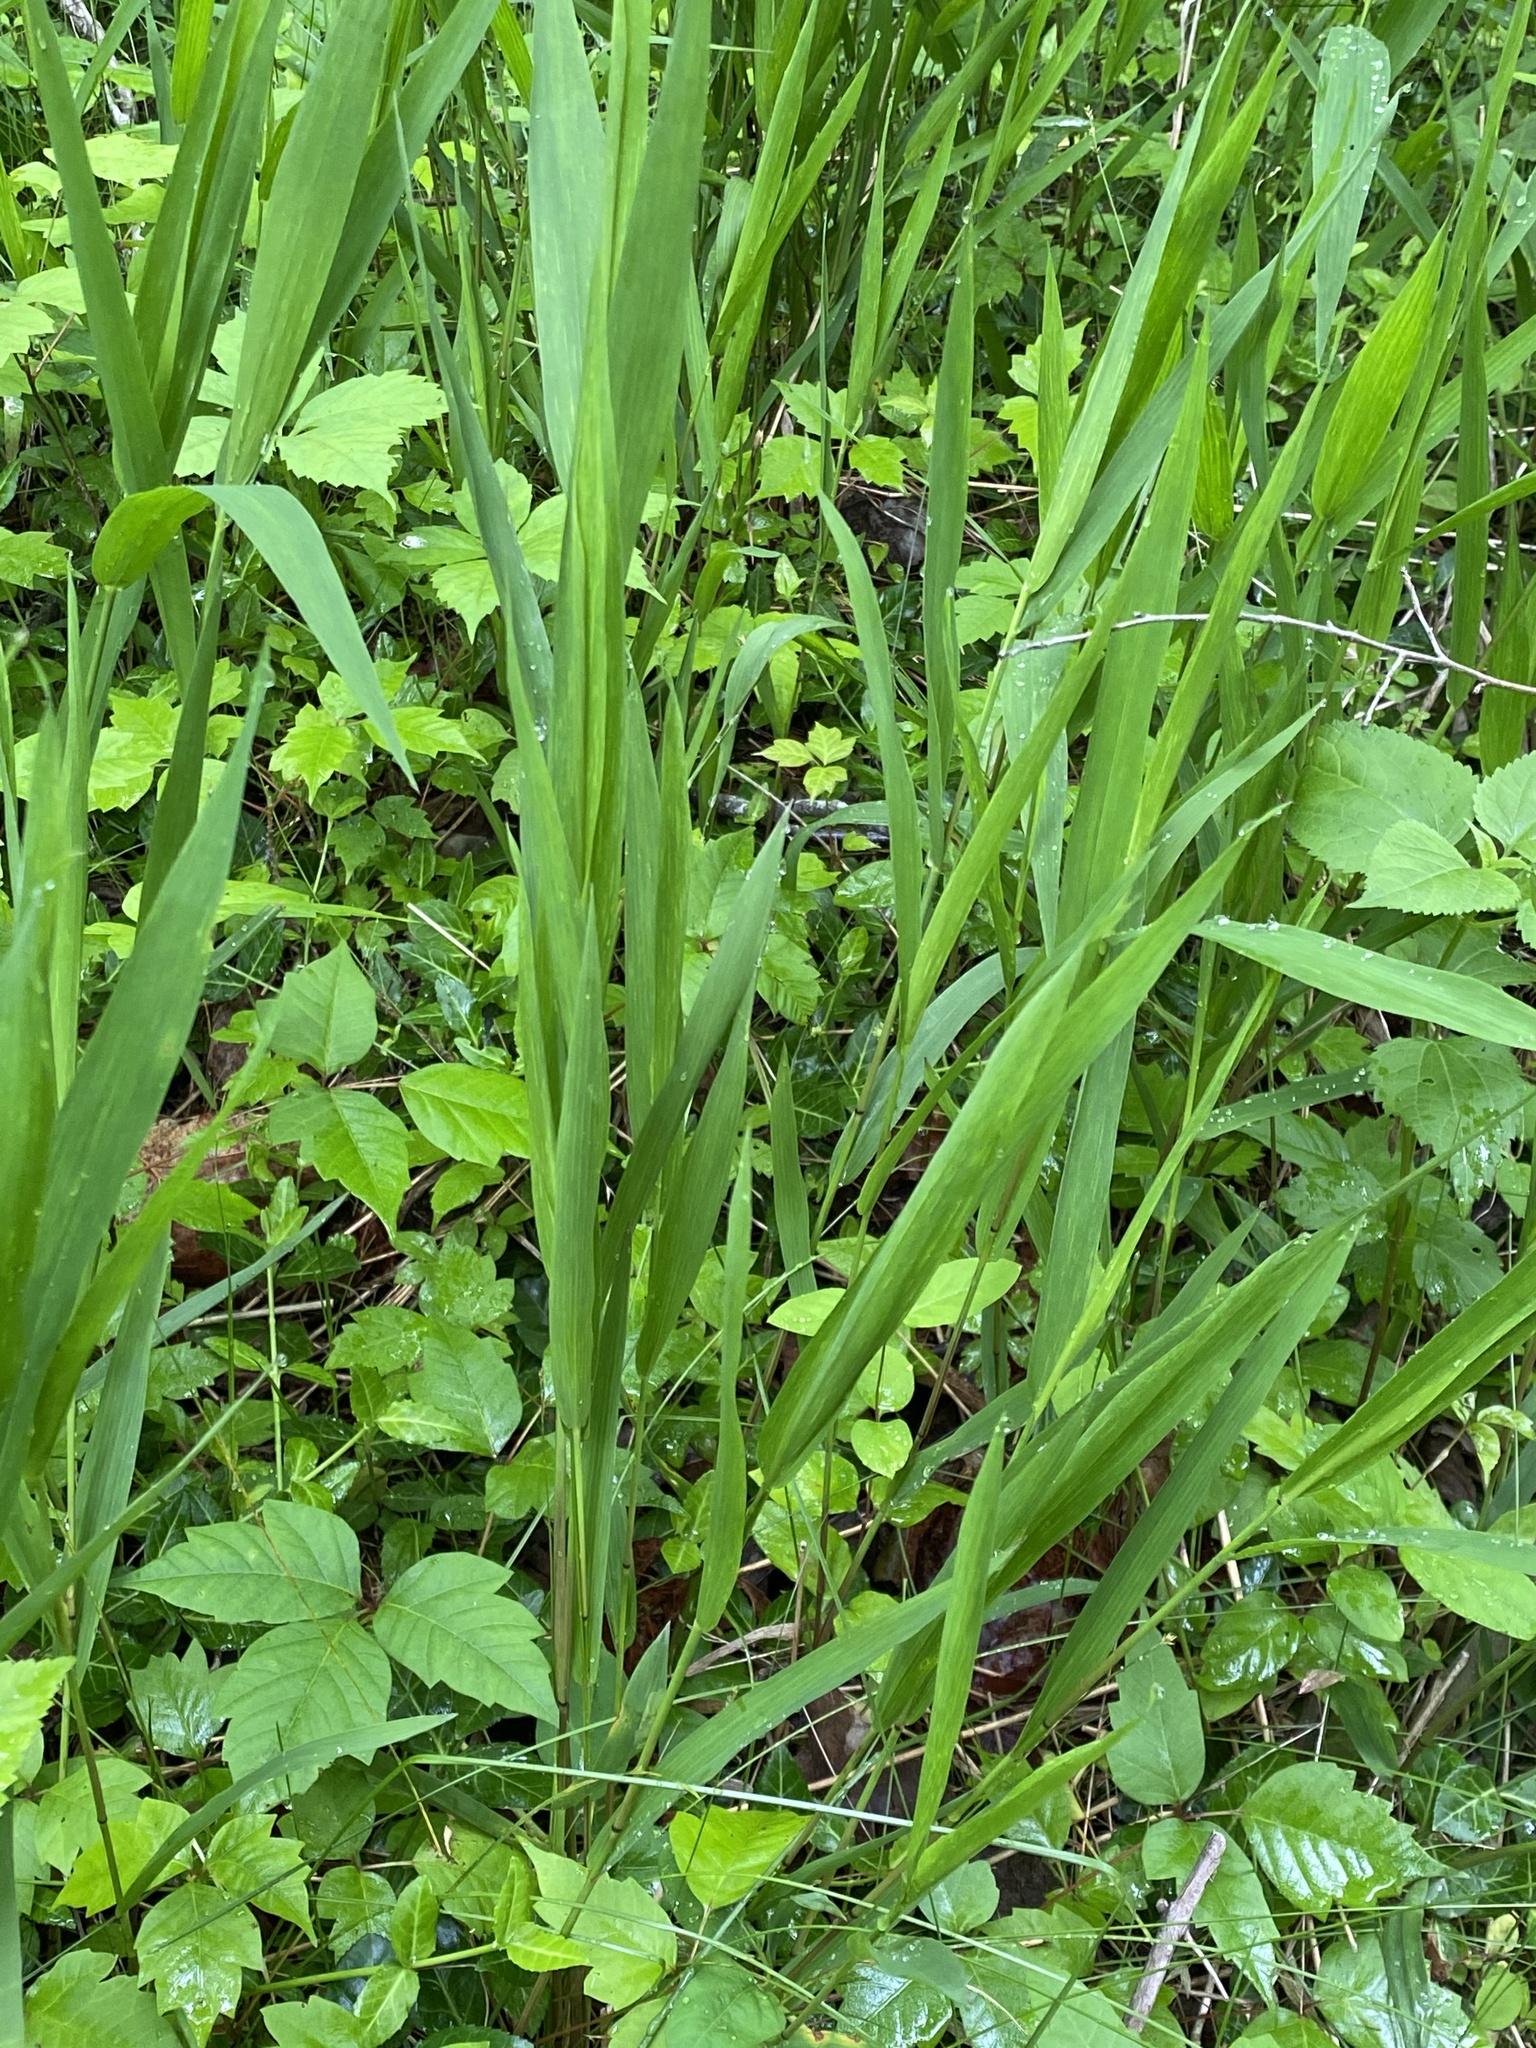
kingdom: Plantae
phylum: Tracheophyta
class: Liliopsida
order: Poales
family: Poaceae
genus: Chasmanthium
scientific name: Chasmanthium latifolium
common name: Broad-leaved chasmanthium
